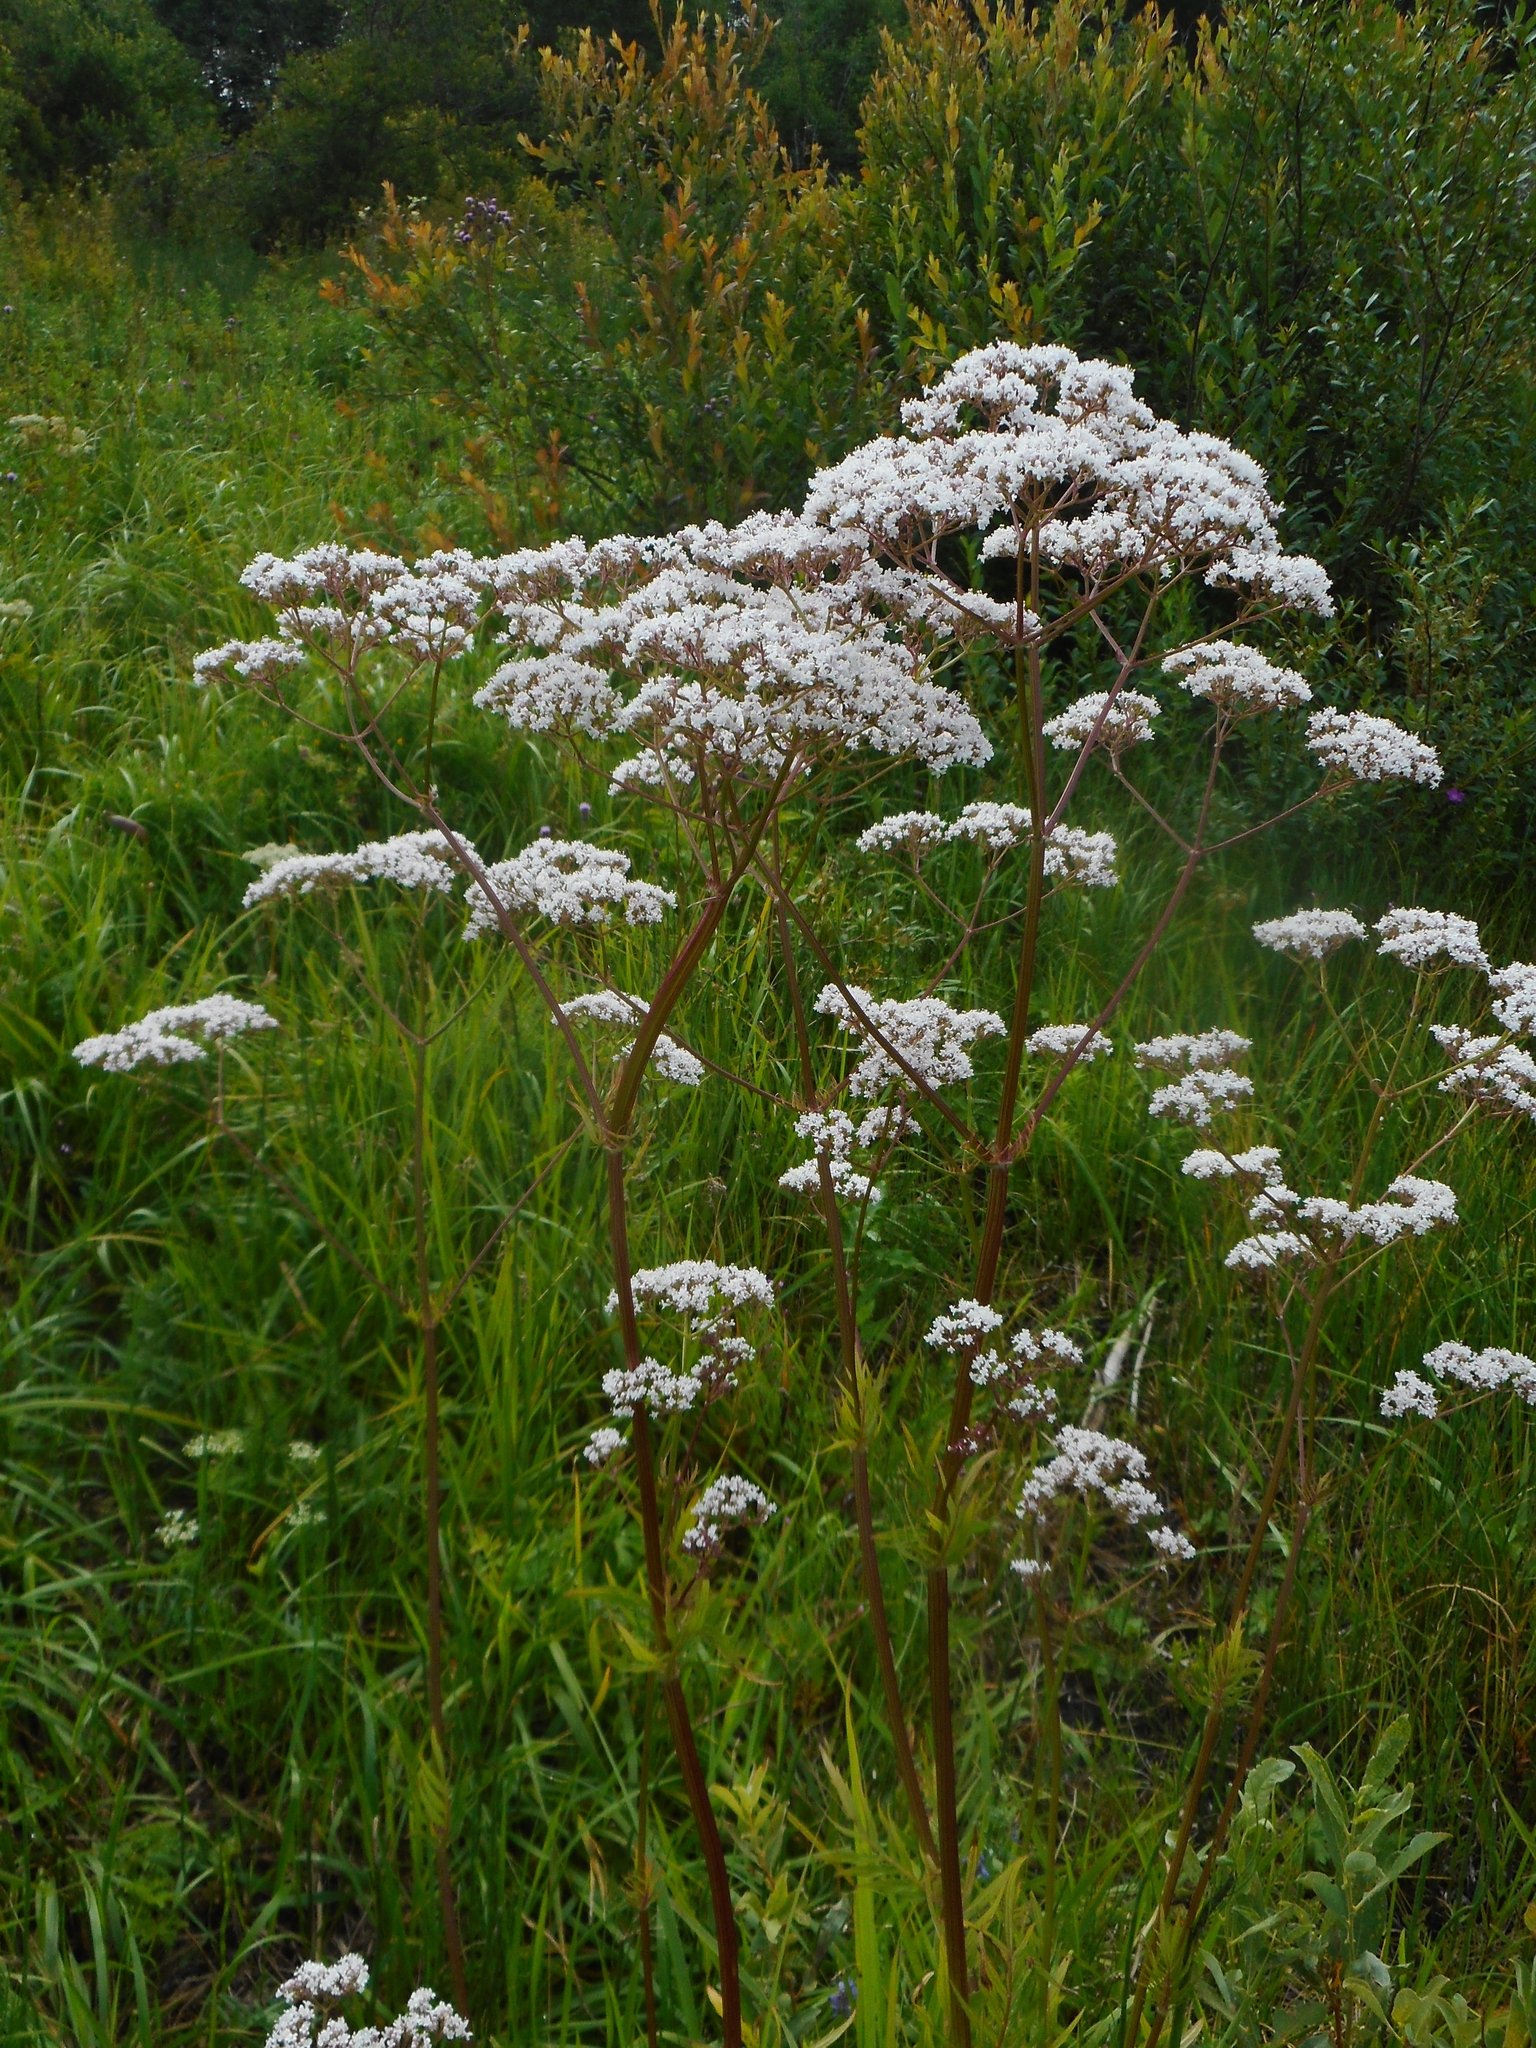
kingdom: Plantae
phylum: Tracheophyta
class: Magnoliopsida
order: Dipsacales
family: Caprifoliaceae
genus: Valeriana
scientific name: Valeriana officinalis
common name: Common valerian
